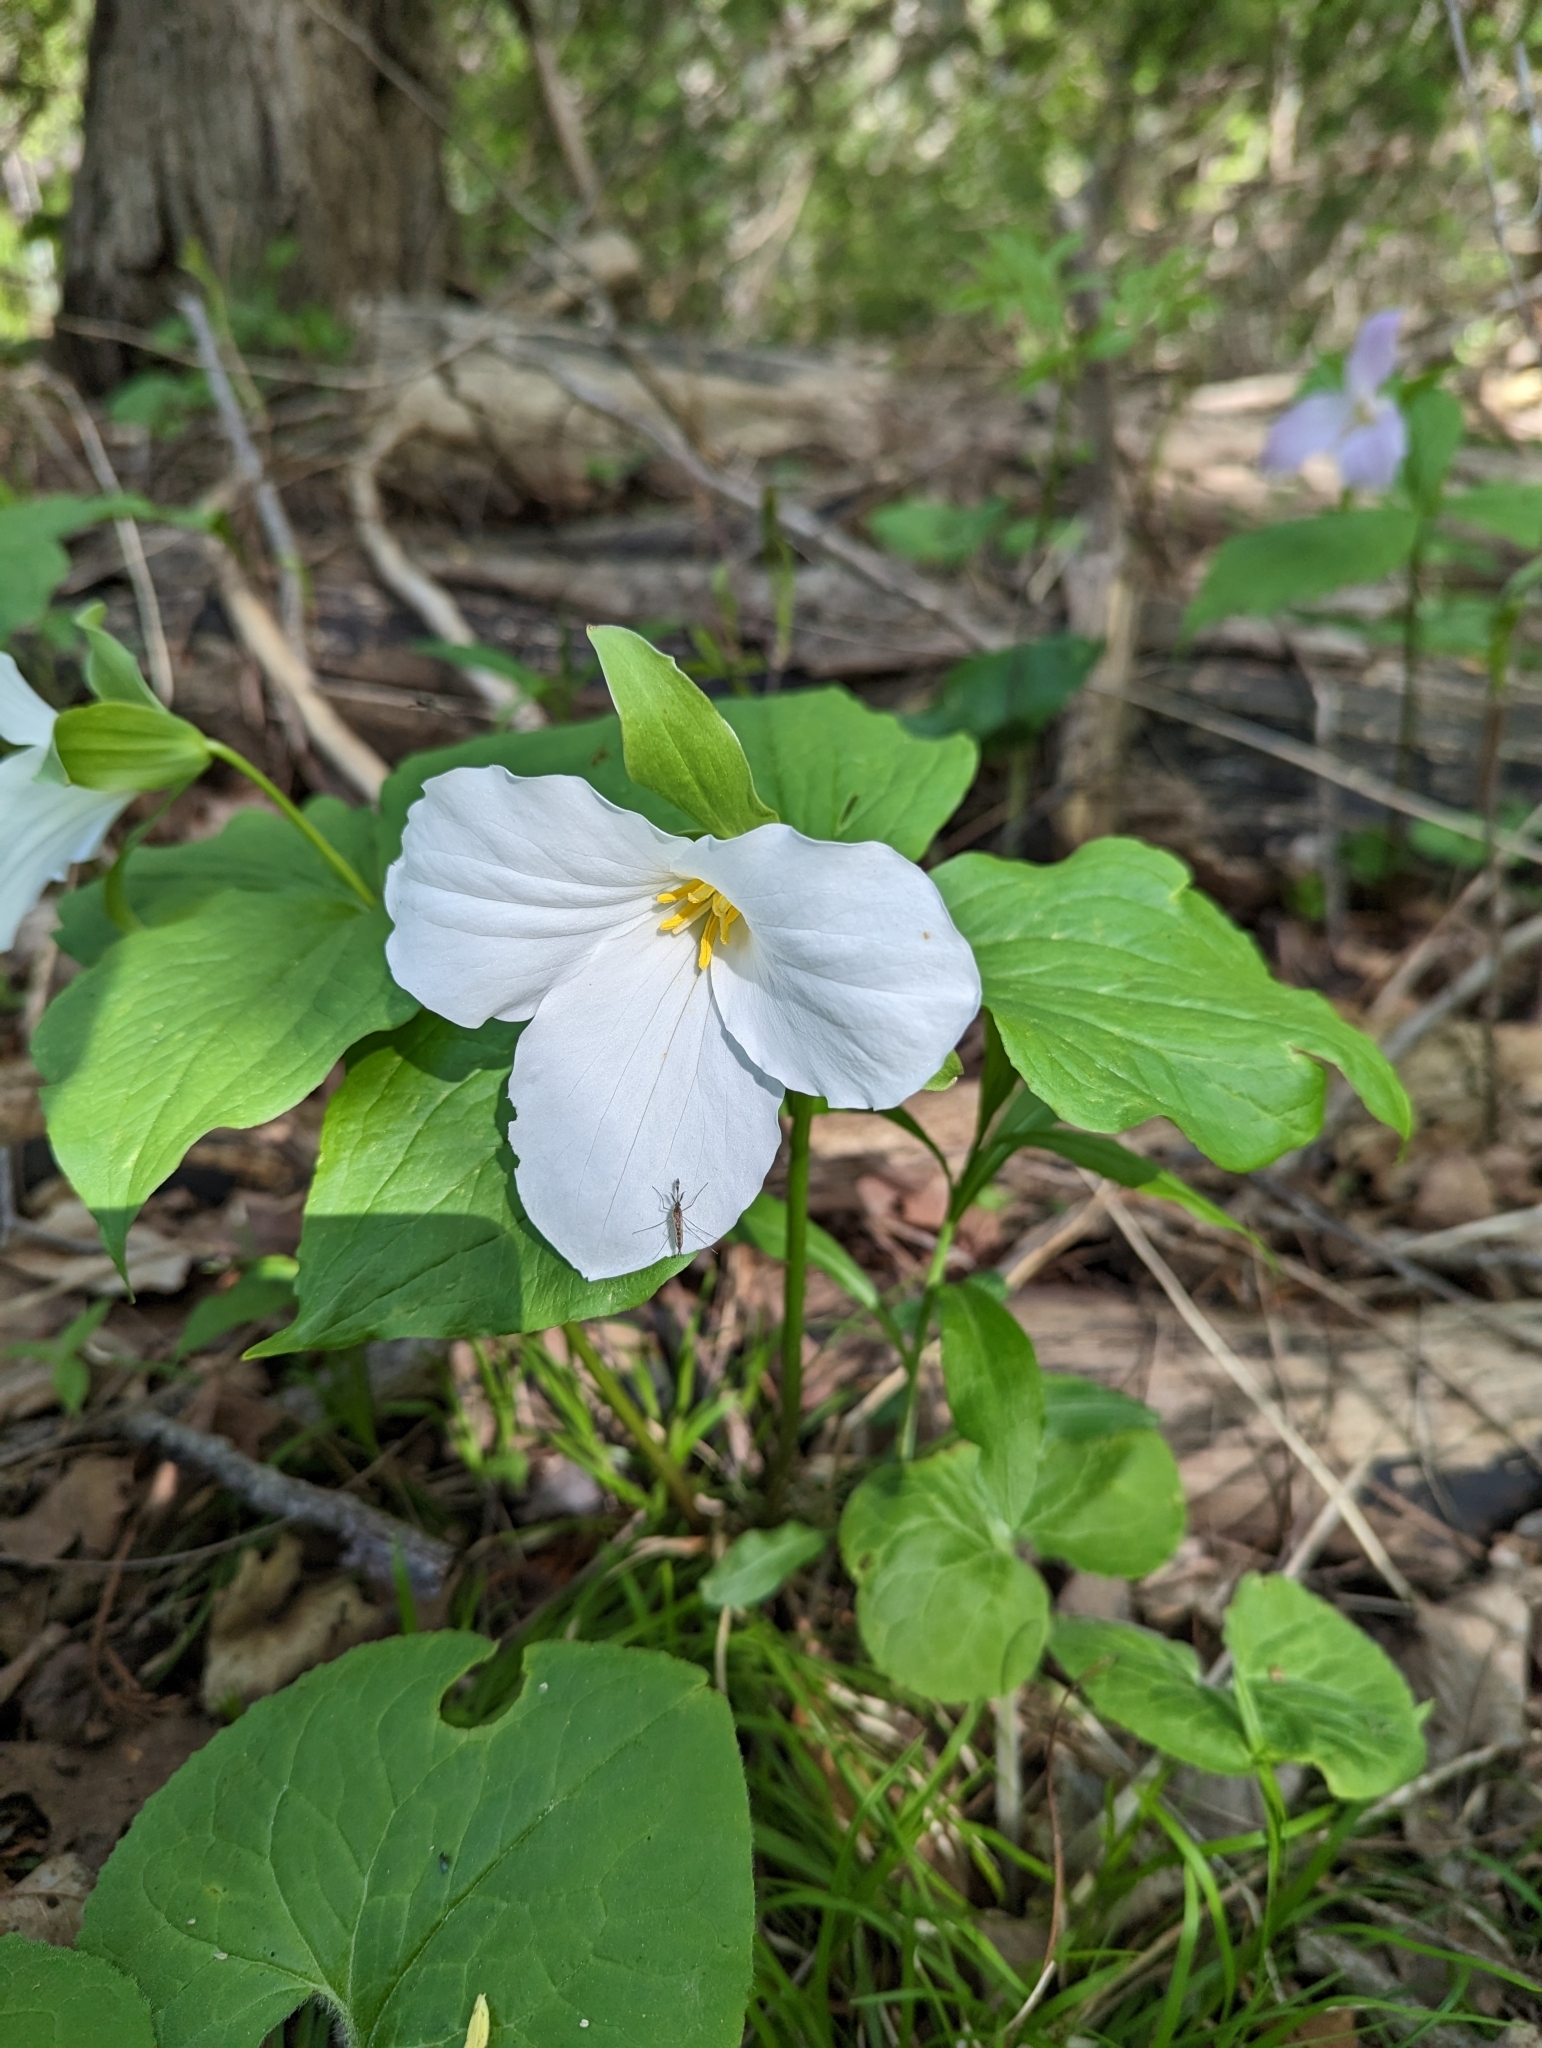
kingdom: Plantae
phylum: Tracheophyta
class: Liliopsida
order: Liliales
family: Melanthiaceae
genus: Trillium
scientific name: Trillium grandiflorum
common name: Great white trillium
